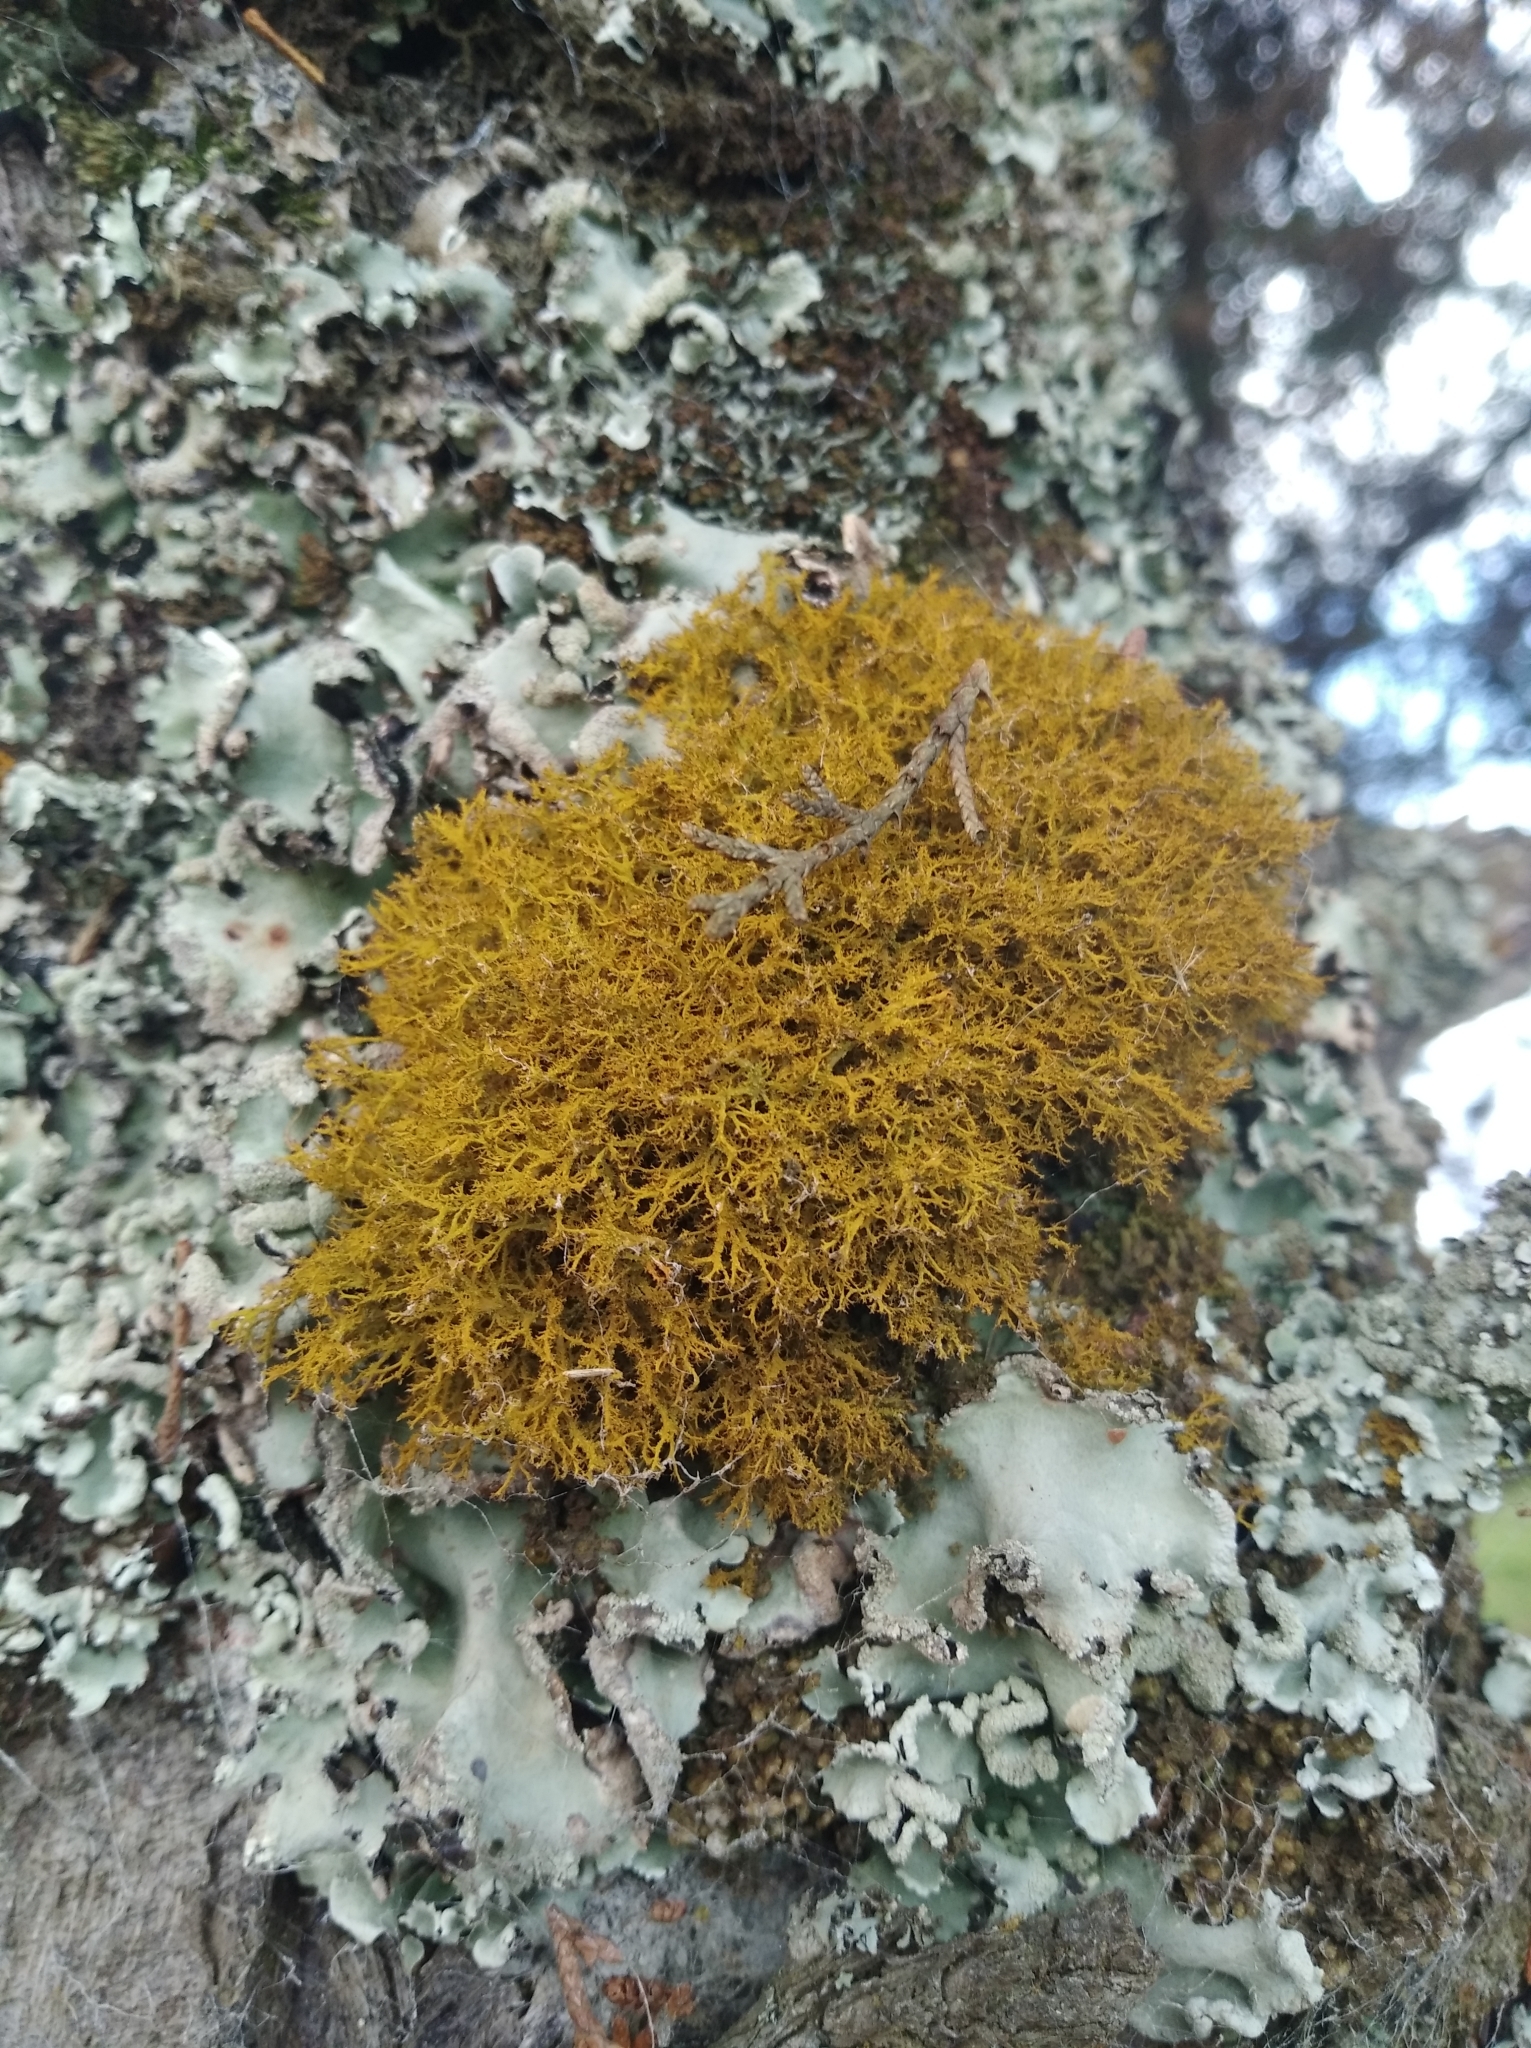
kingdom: Fungi
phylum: Ascomycota
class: Lecanoromycetes
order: Teloschistales
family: Teloschistaceae
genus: Teloschistes
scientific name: Teloschistes flavicans
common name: Golden hair-lichen
